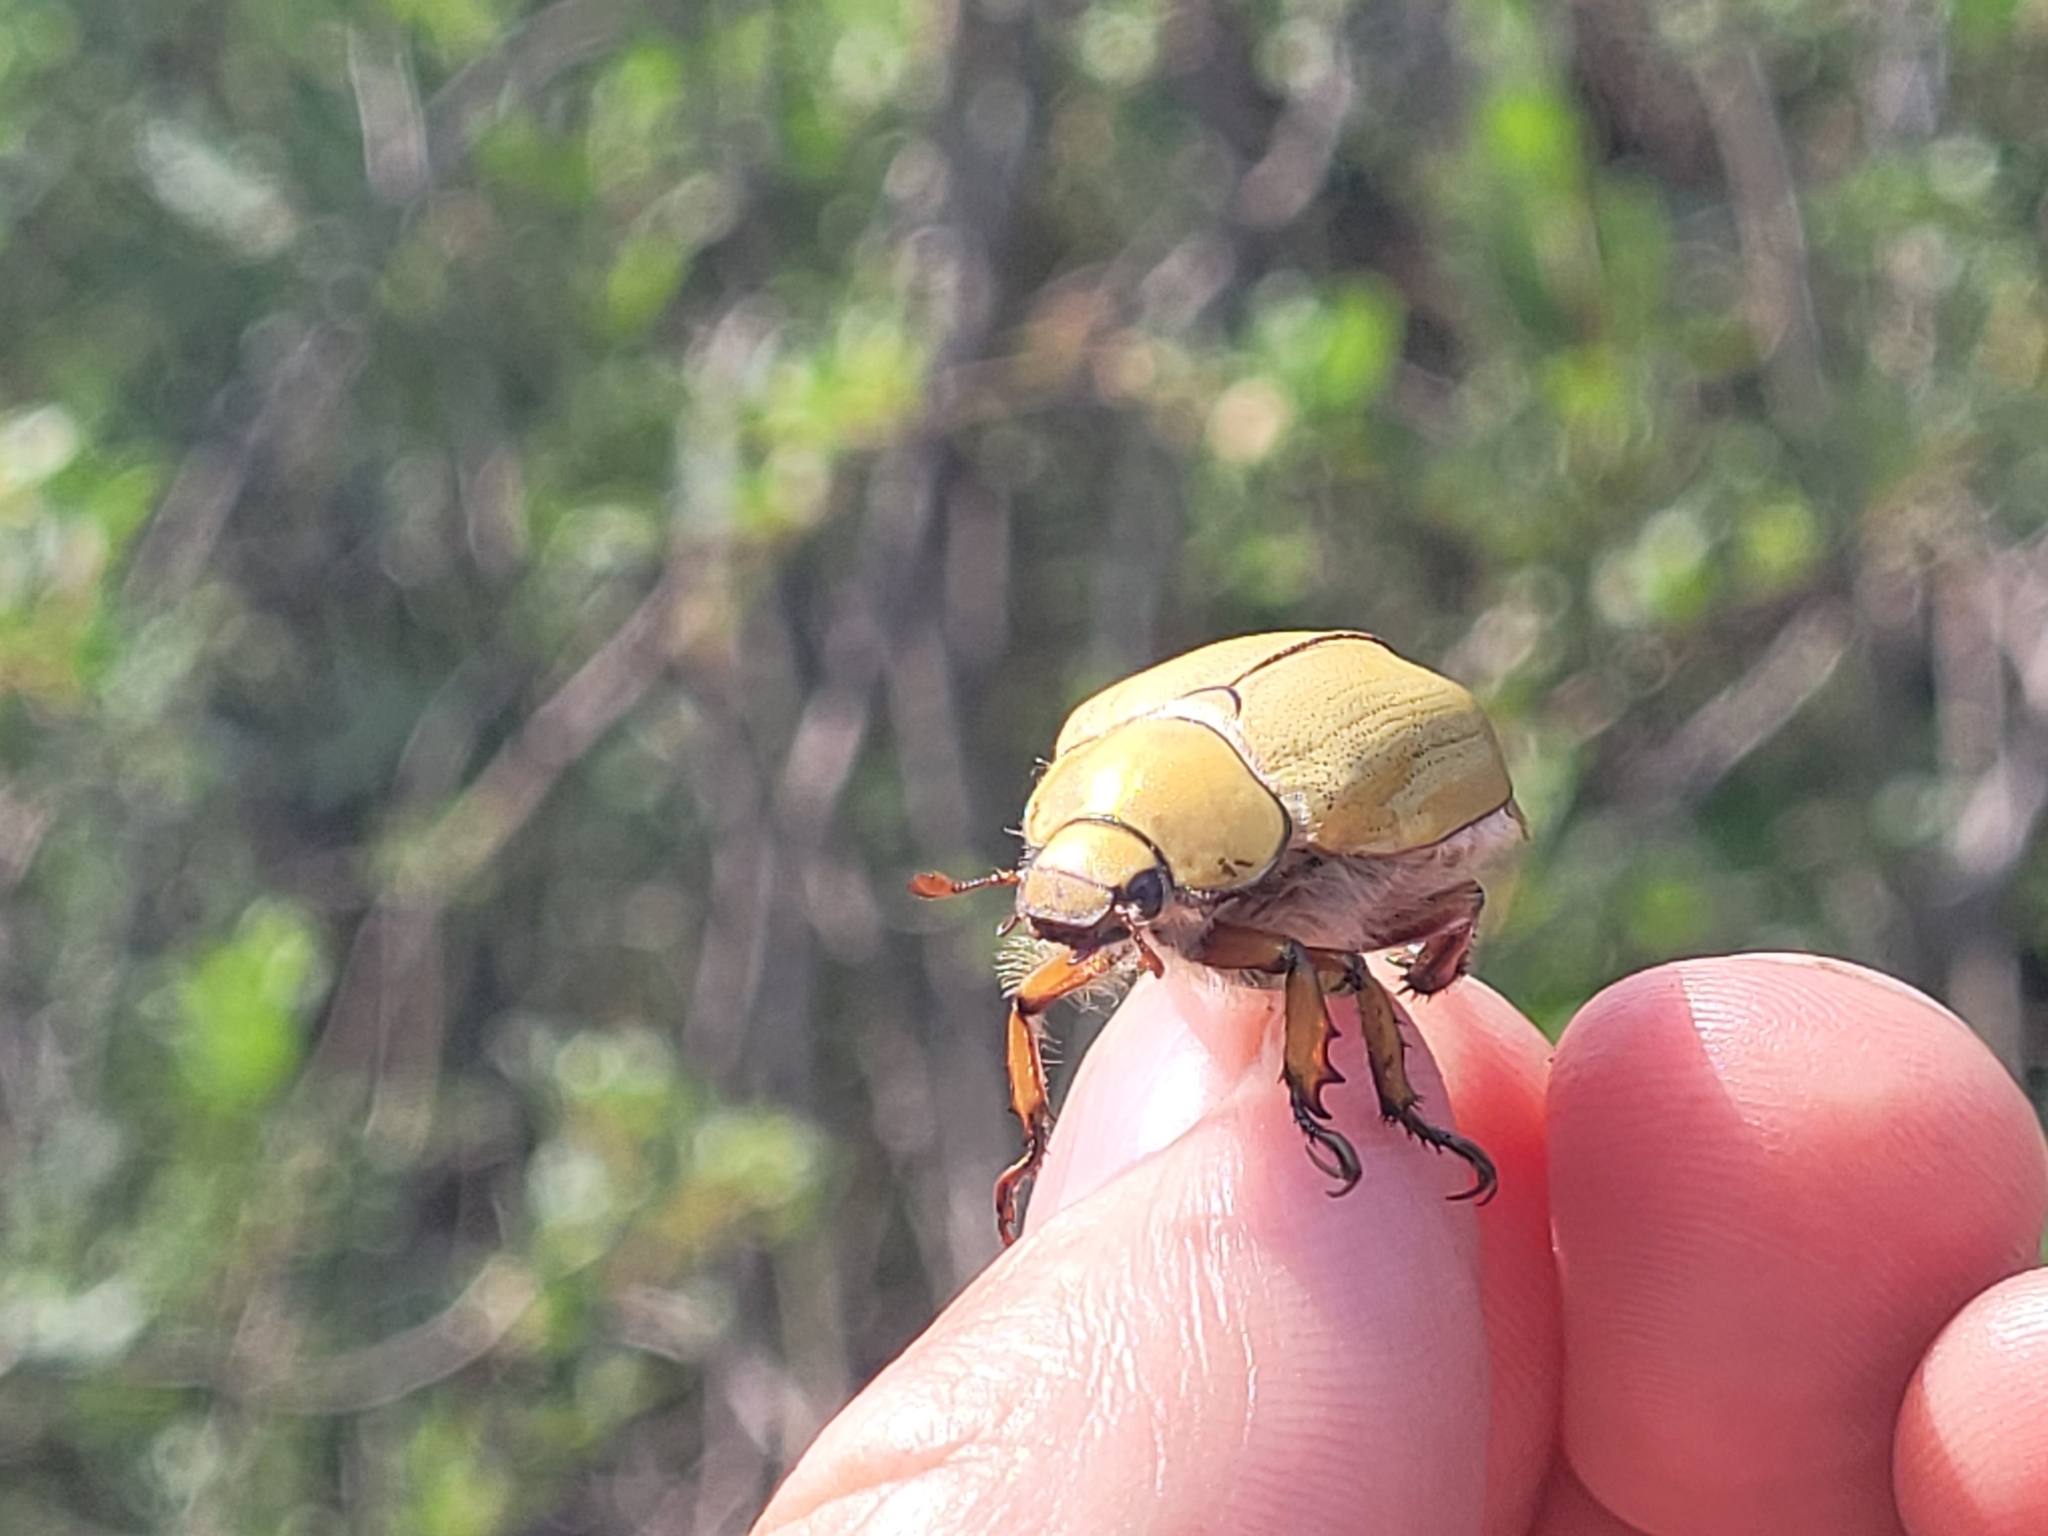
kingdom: Animalia
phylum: Arthropoda
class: Insecta
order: Coleoptera
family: Scarabaeidae
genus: Cotalpa
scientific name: Cotalpa lanigera
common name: Goldsmith beetle
